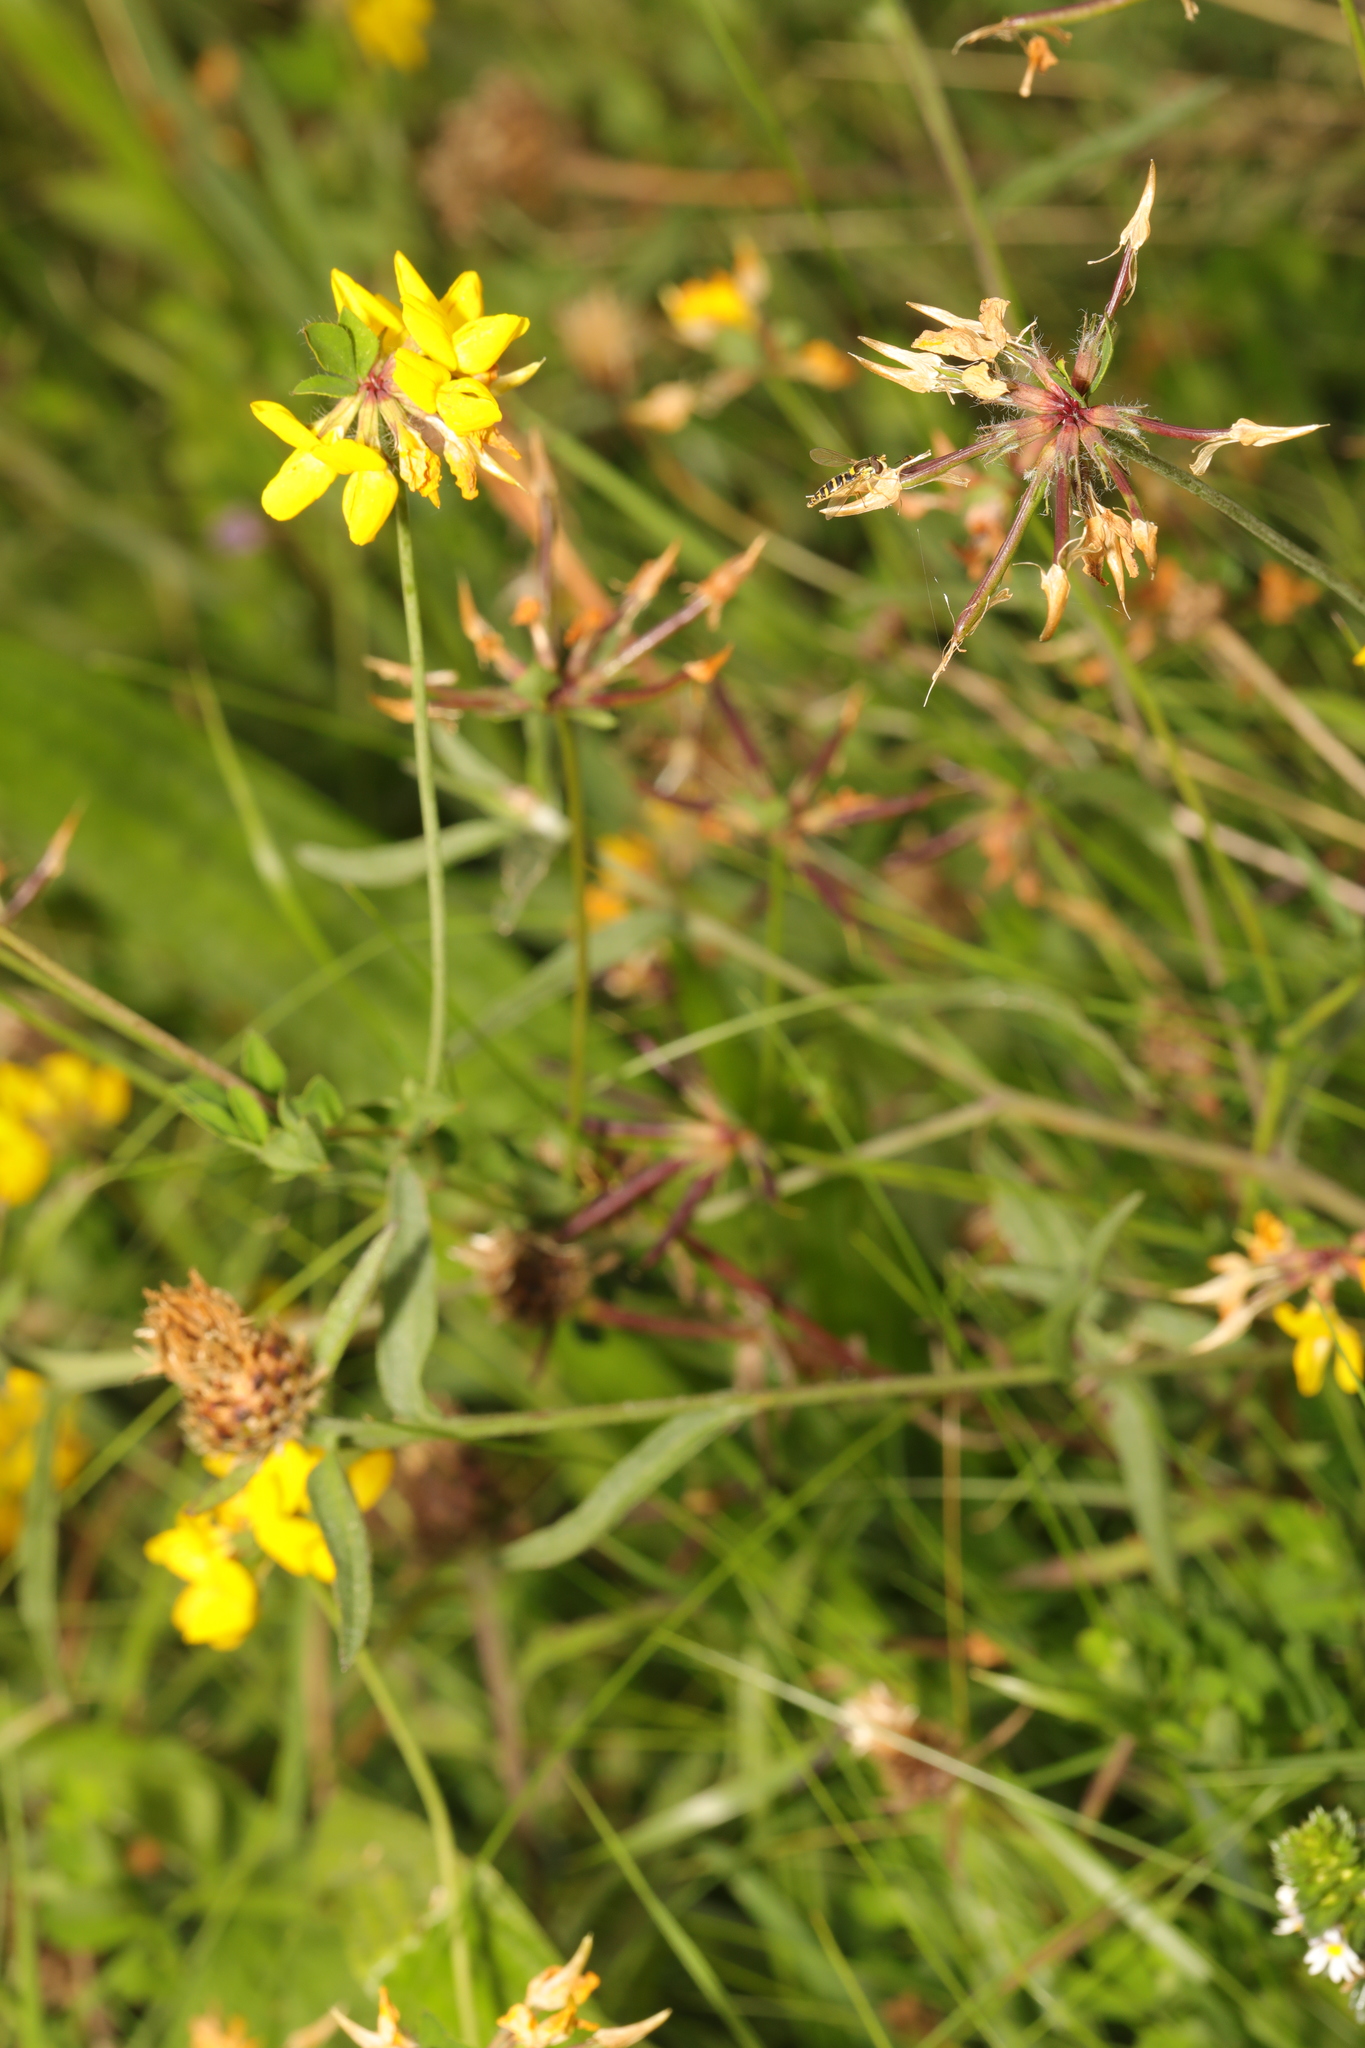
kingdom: Plantae
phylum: Tracheophyta
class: Magnoliopsida
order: Fabales
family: Fabaceae
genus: Lotus
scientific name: Lotus pedunculatus
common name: Greater birdsfoot-trefoil
